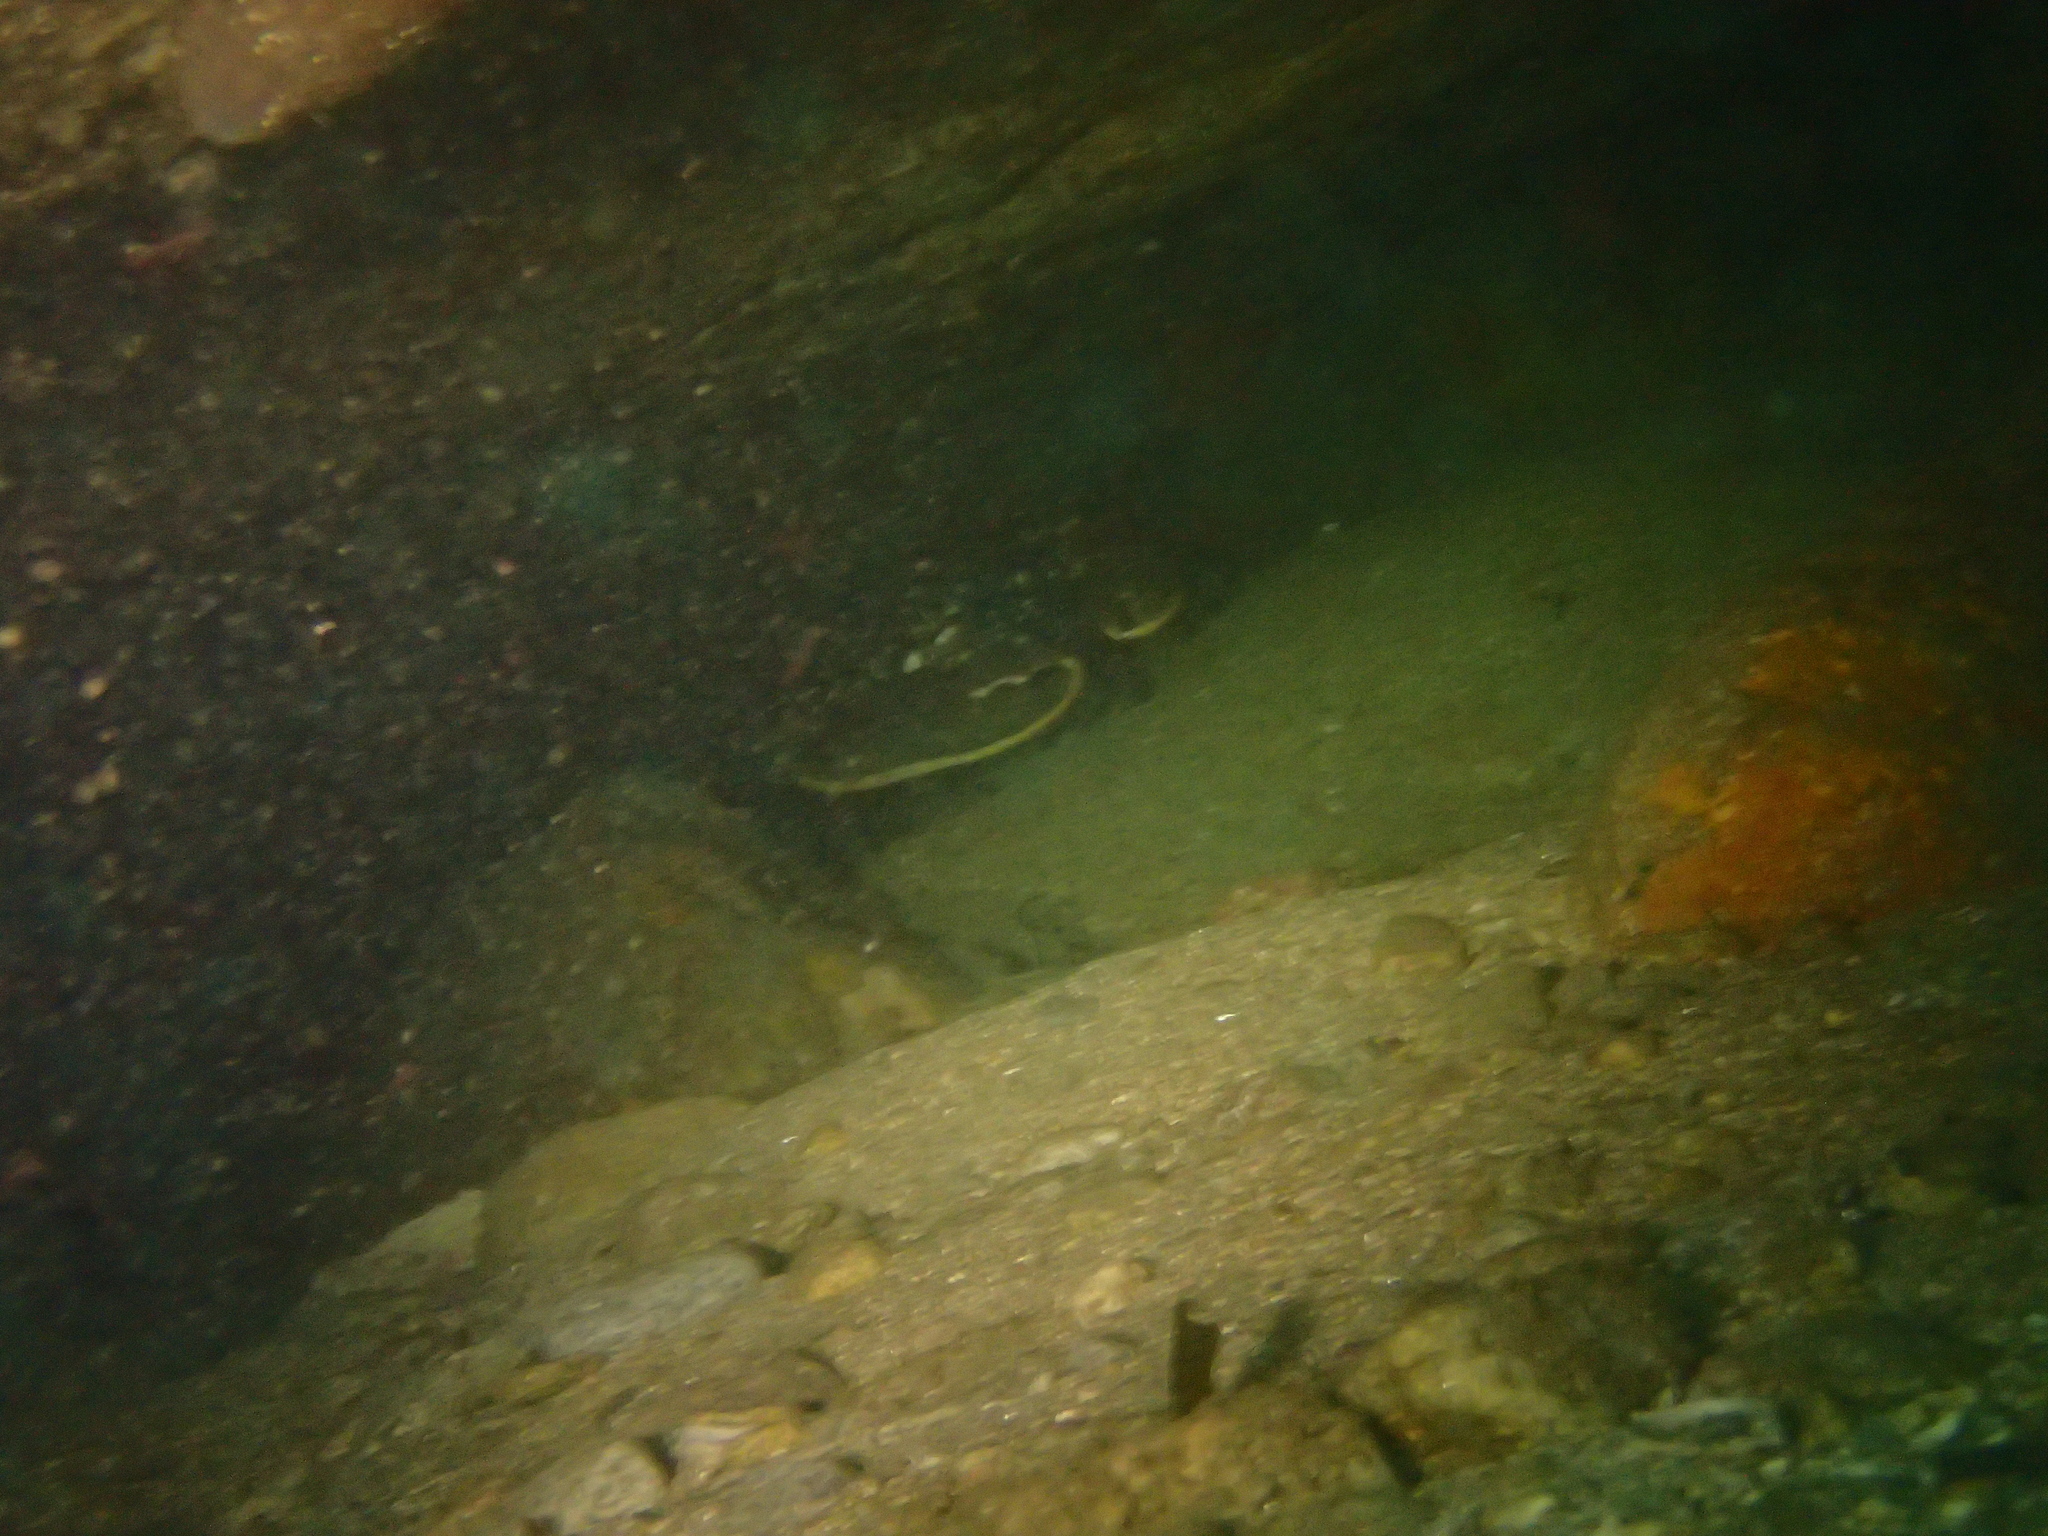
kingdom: Animalia
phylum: Arthropoda
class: Malacostraca
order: Decapoda
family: Nephropidae
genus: Homarus
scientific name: Homarus gammarus
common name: European lobster
